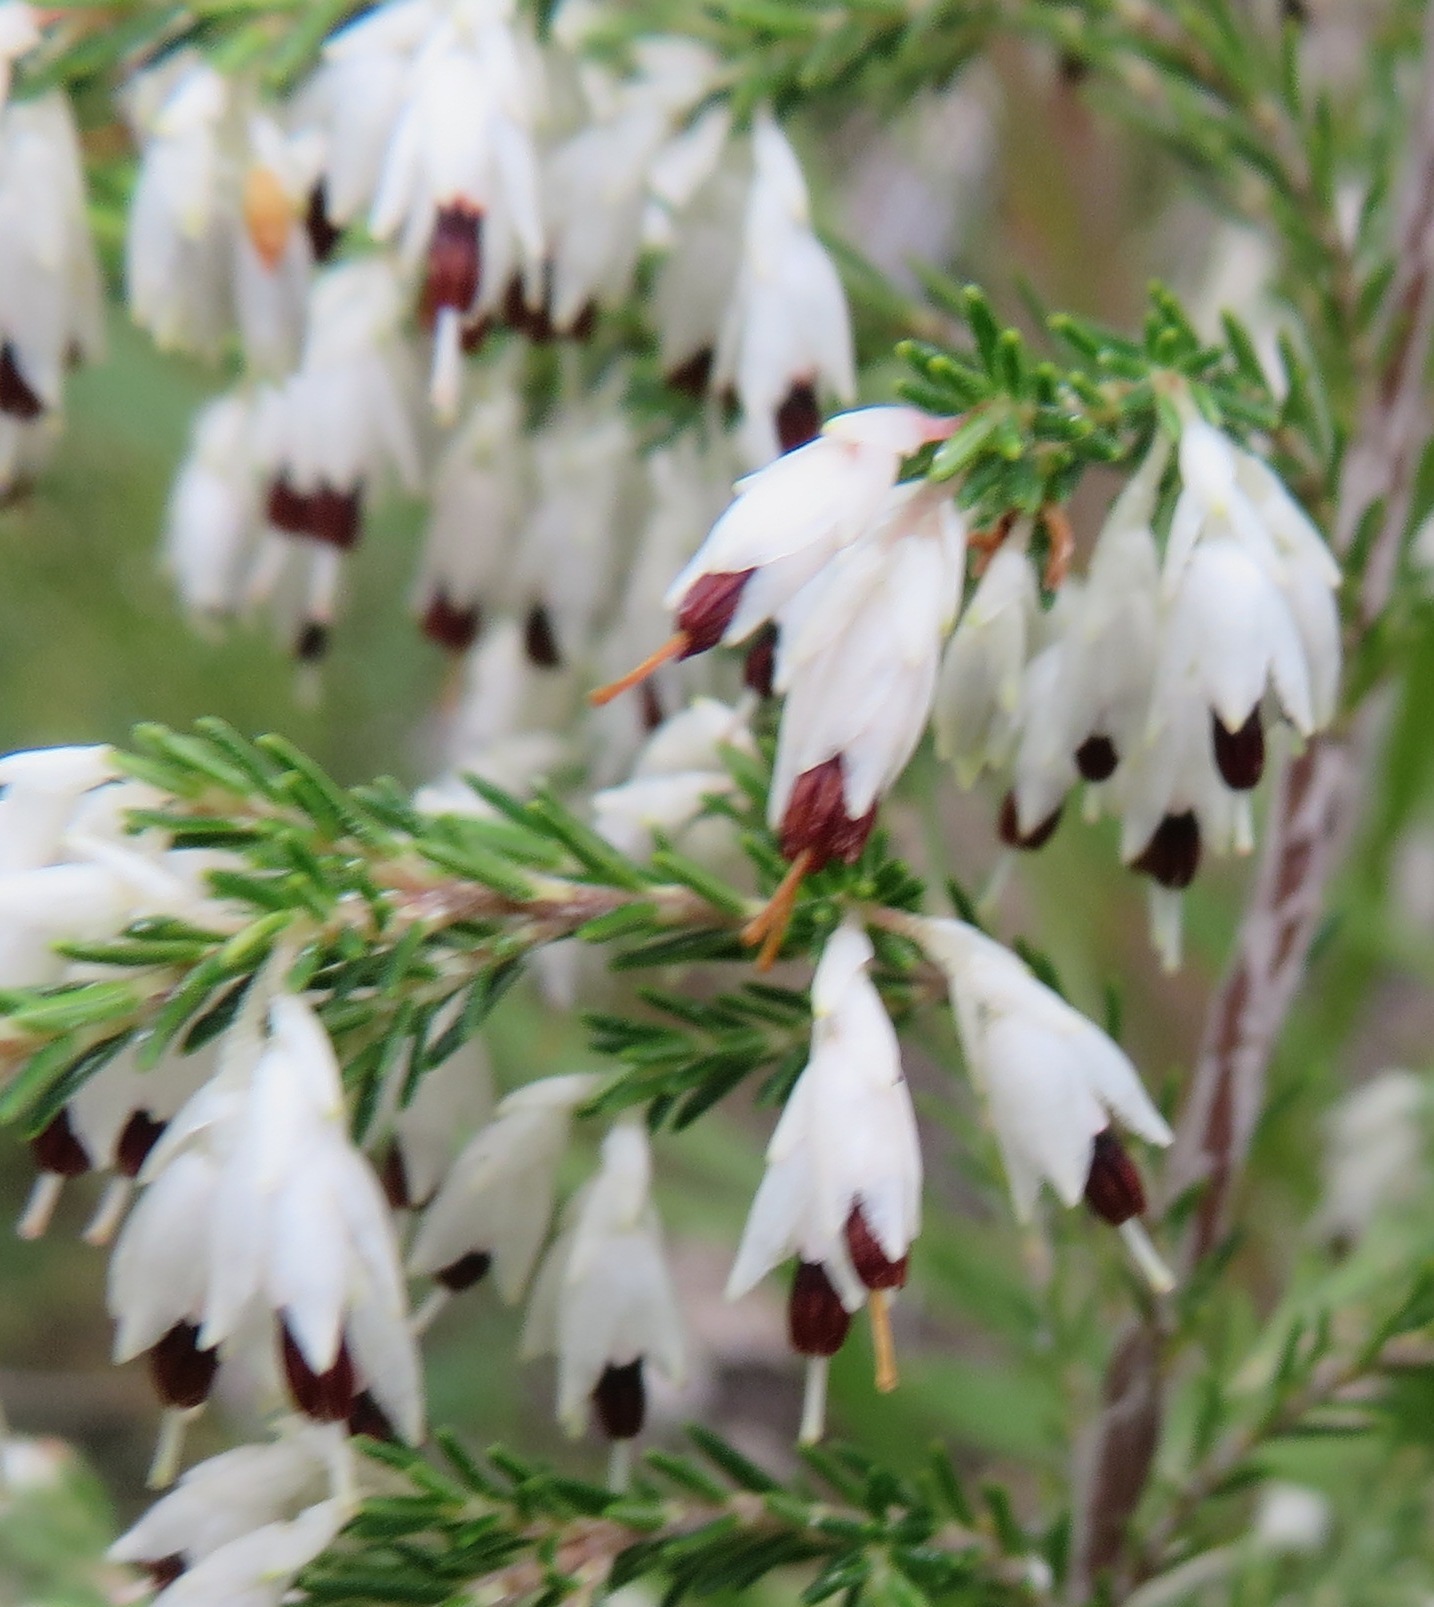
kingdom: Plantae
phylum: Tracheophyta
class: Magnoliopsida
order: Ericales
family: Ericaceae
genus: Erica
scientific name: Erica imbricata
